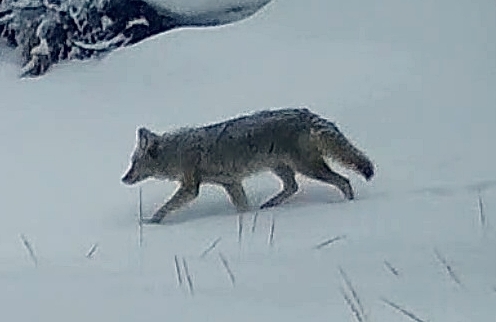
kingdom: Animalia
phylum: Chordata
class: Mammalia
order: Carnivora
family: Canidae
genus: Canis
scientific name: Canis latrans
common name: Coyote
